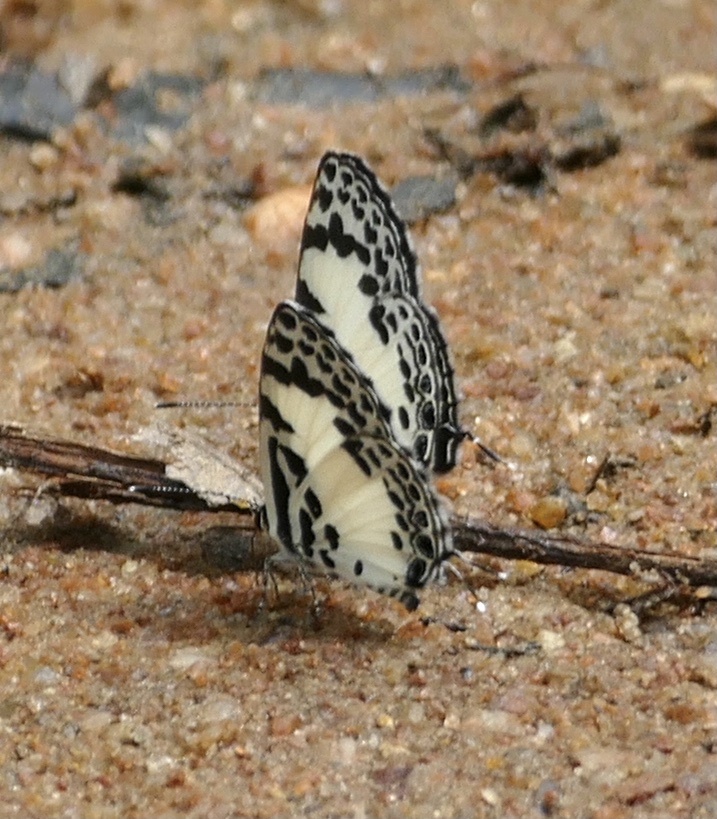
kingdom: Animalia
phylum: Arthropoda
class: Insecta
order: Lepidoptera
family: Lycaenidae
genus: Castalius
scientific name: Castalius carana
